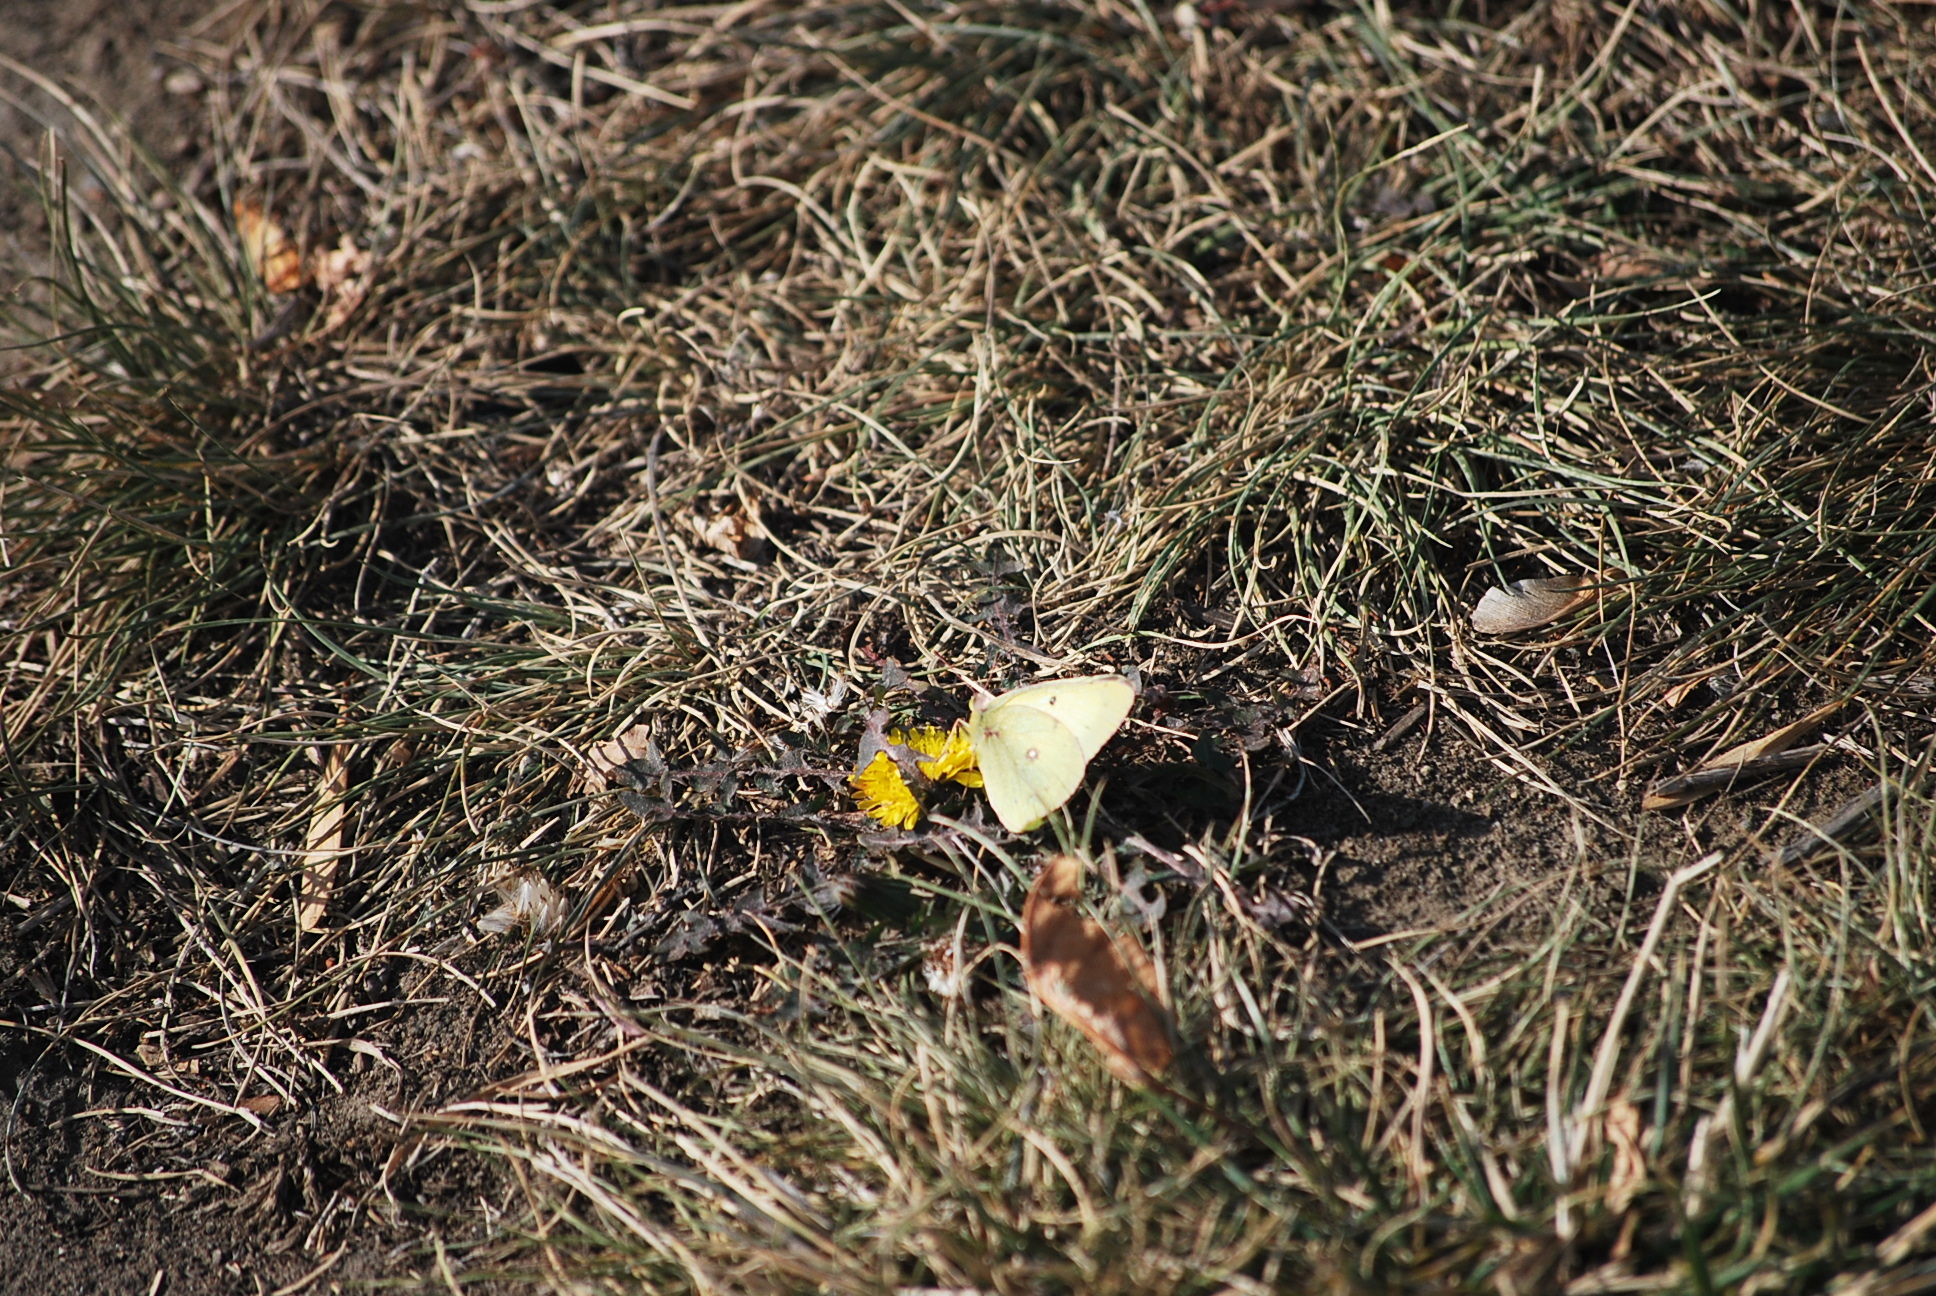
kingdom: Animalia
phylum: Arthropoda
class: Insecta
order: Lepidoptera
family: Pieridae
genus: Colias
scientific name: Colias philodice
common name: Clouded sulphur
